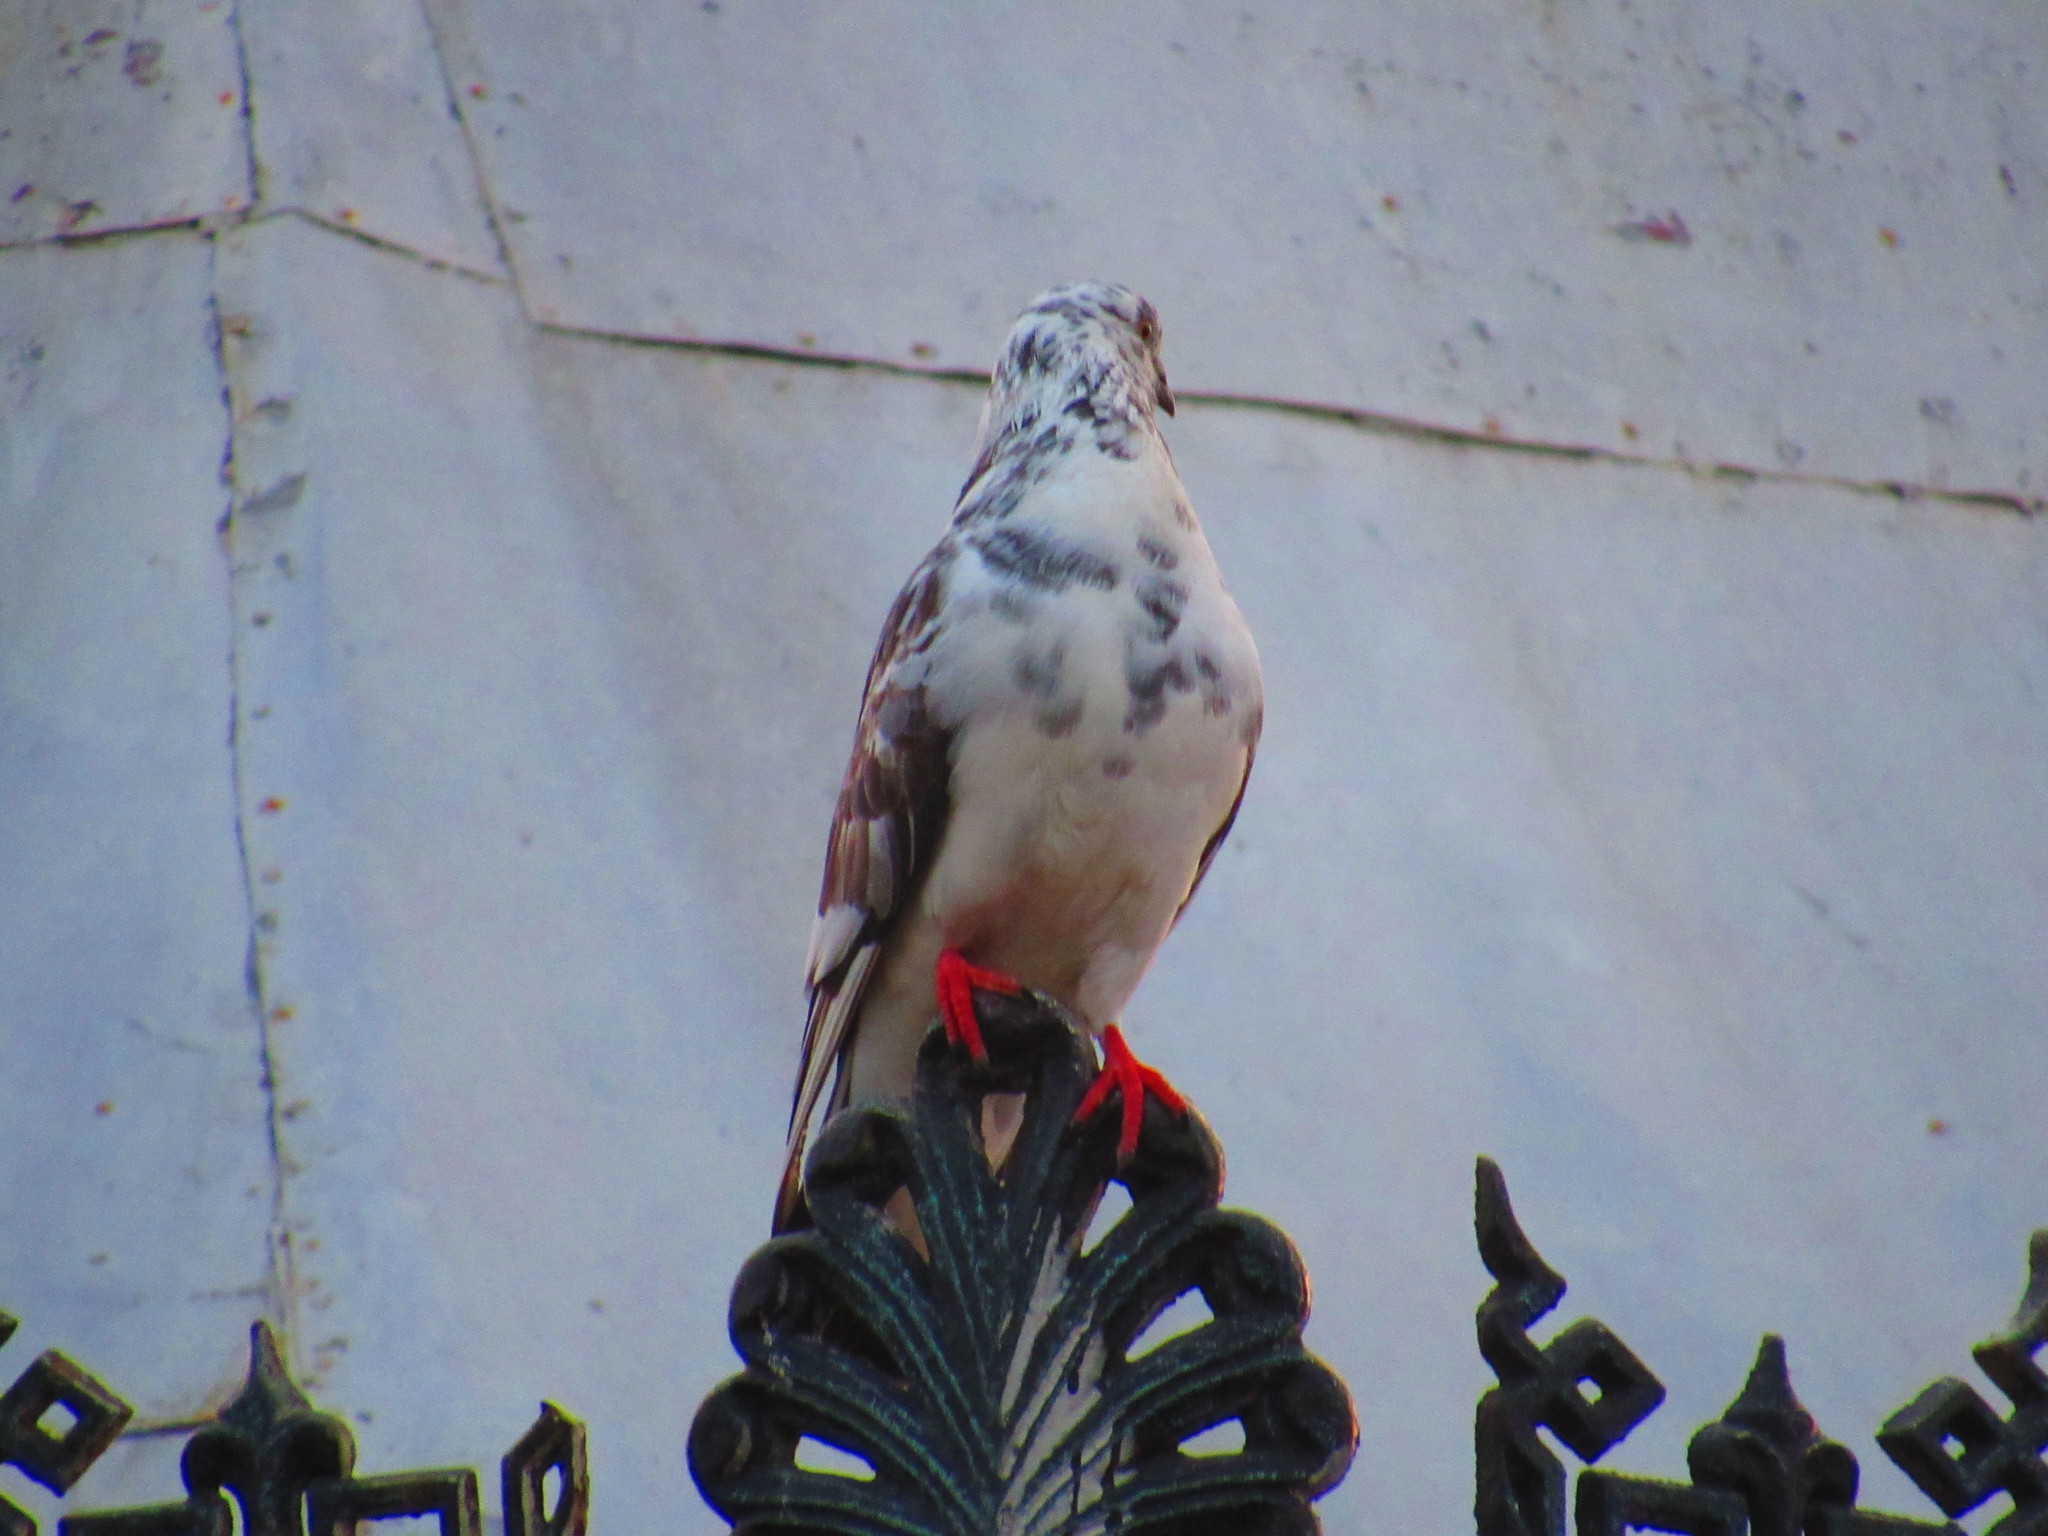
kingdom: Animalia
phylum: Chordata
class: Aves
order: Columbiformes
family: Columbidae
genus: Columba
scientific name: Columba livia
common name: Rock pigeon
